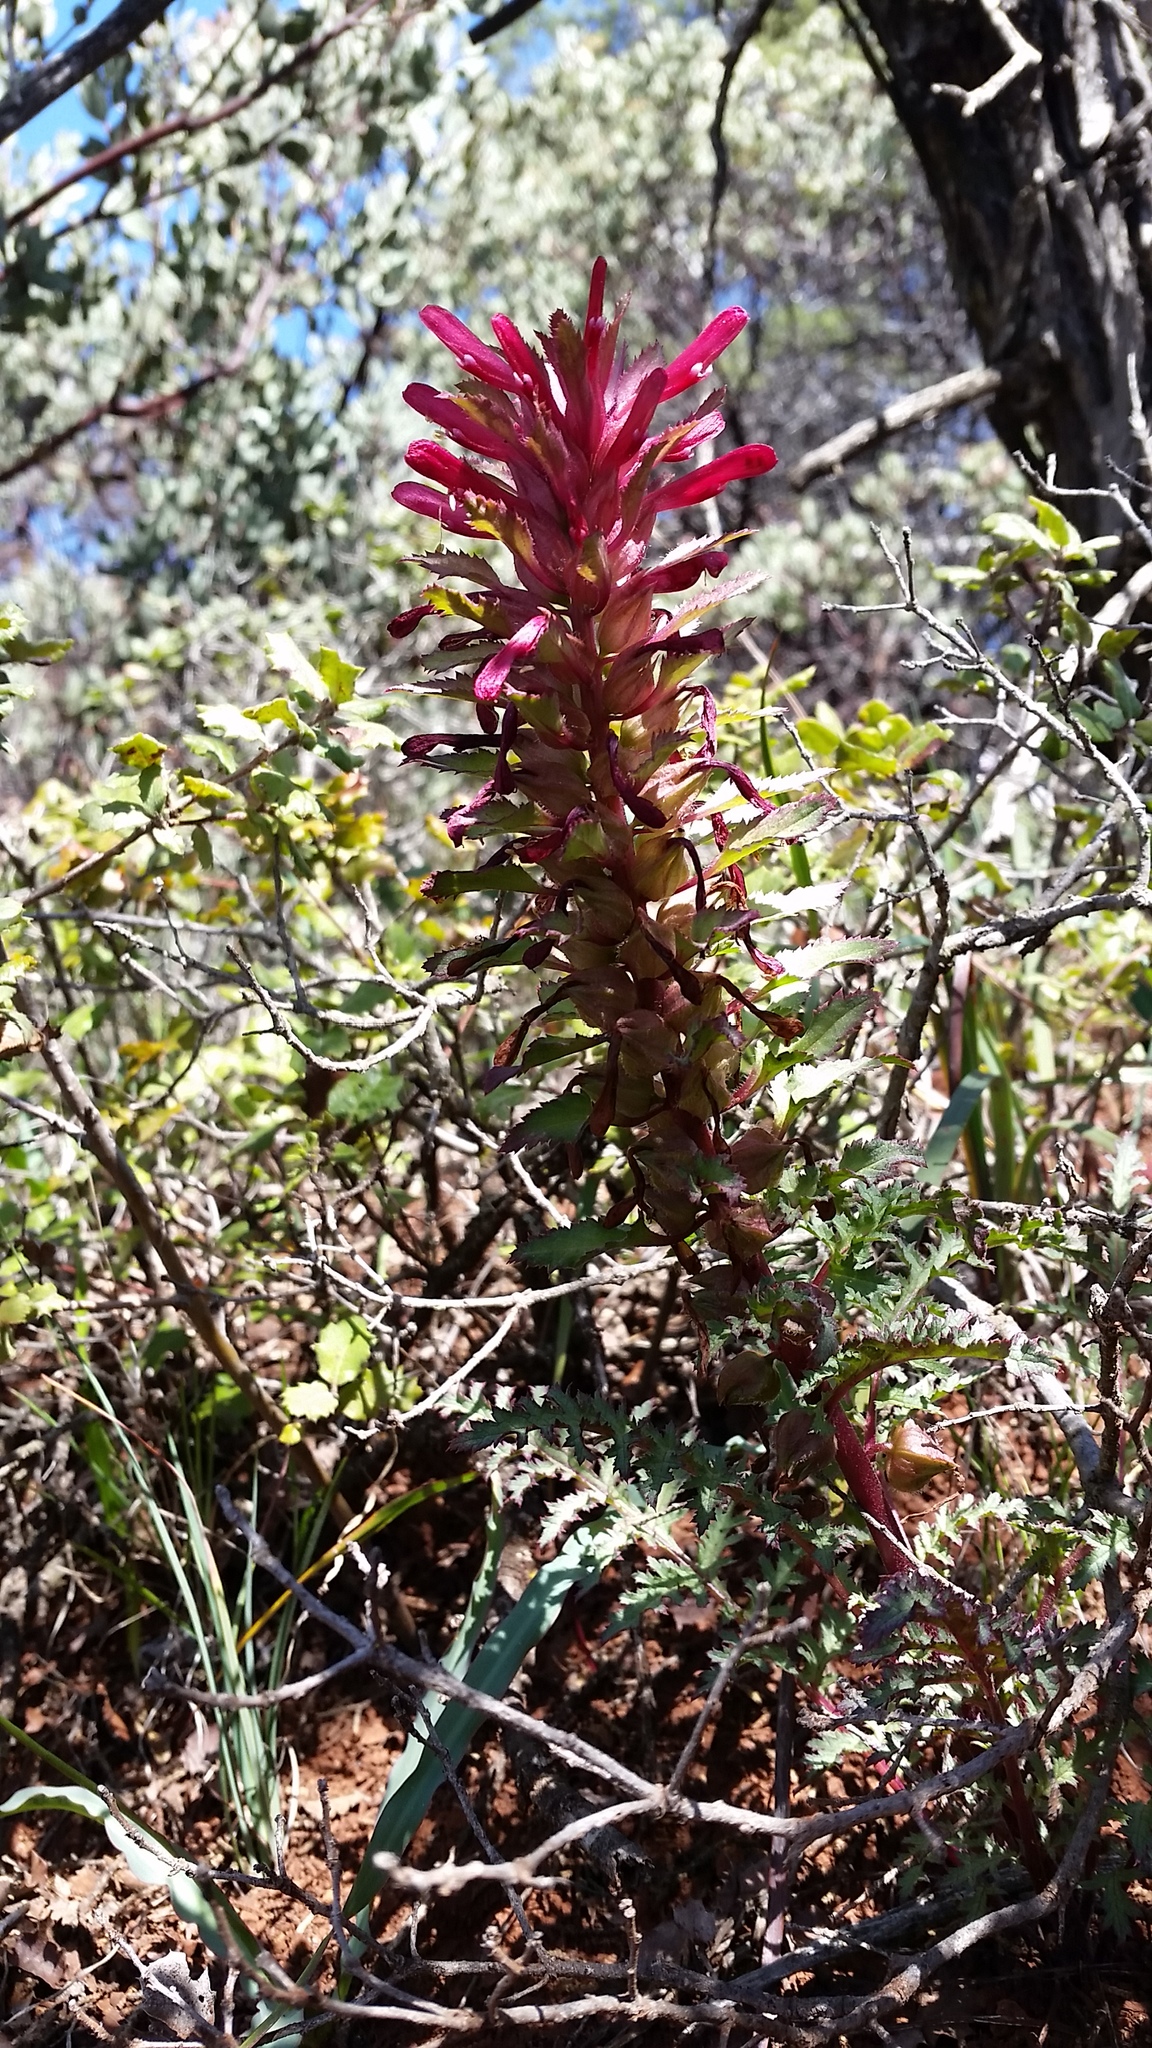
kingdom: Plantae
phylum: Tracheophyta
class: Magnoliopsida
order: Lamiales
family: Orobanchaceae
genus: Pedicularis
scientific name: Pedicularis densiflora
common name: Indian warrior
